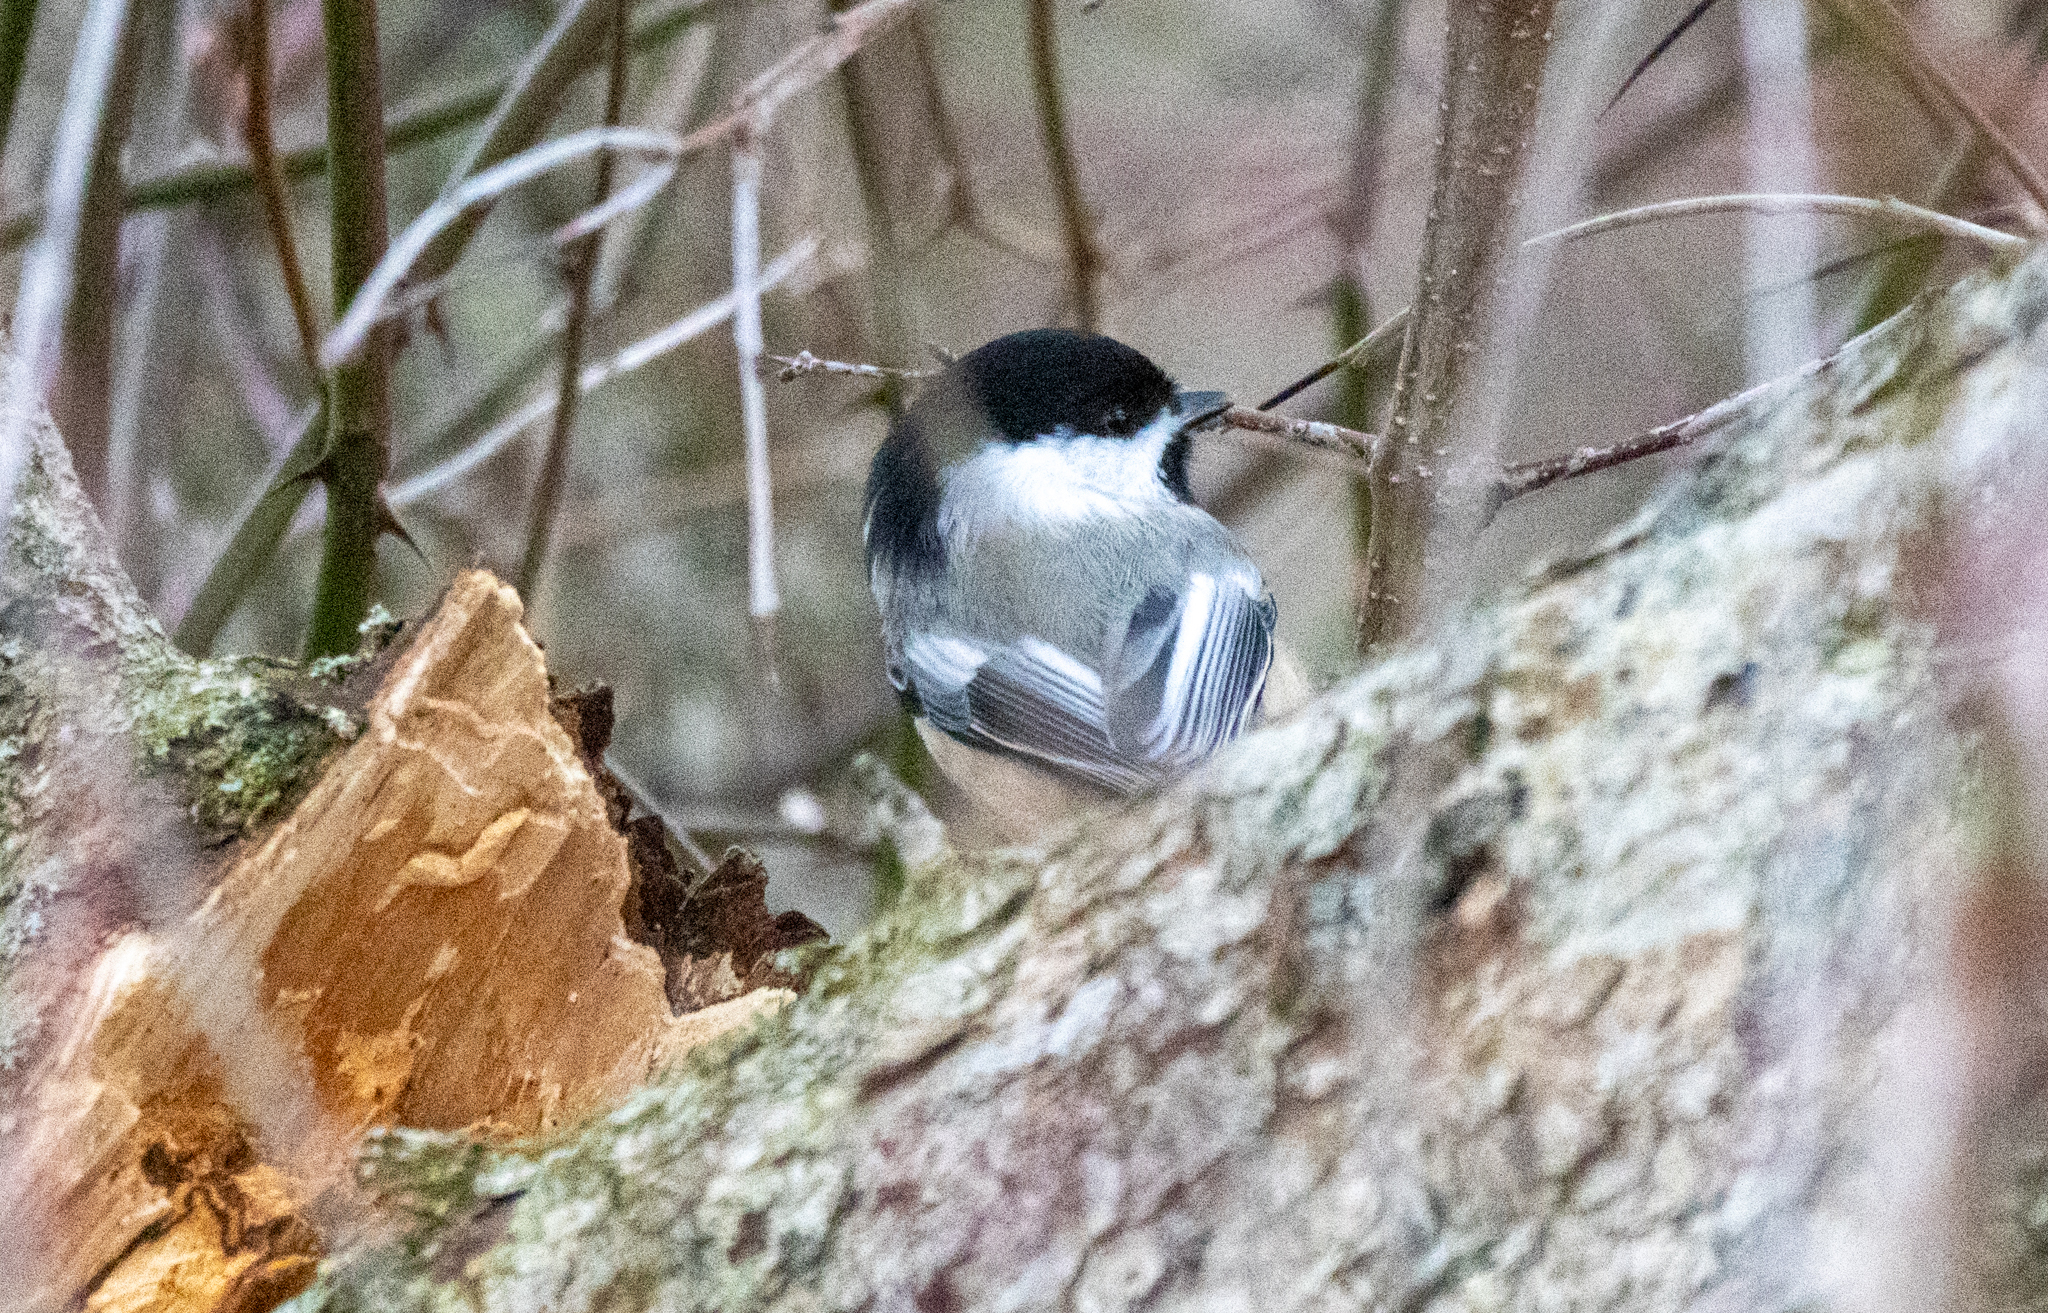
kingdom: Animalia
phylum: Chordata
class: Aves
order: Passeriformes
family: Paridae
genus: Poecile
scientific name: Poecile atricapillus
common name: Black-capped chickadee
